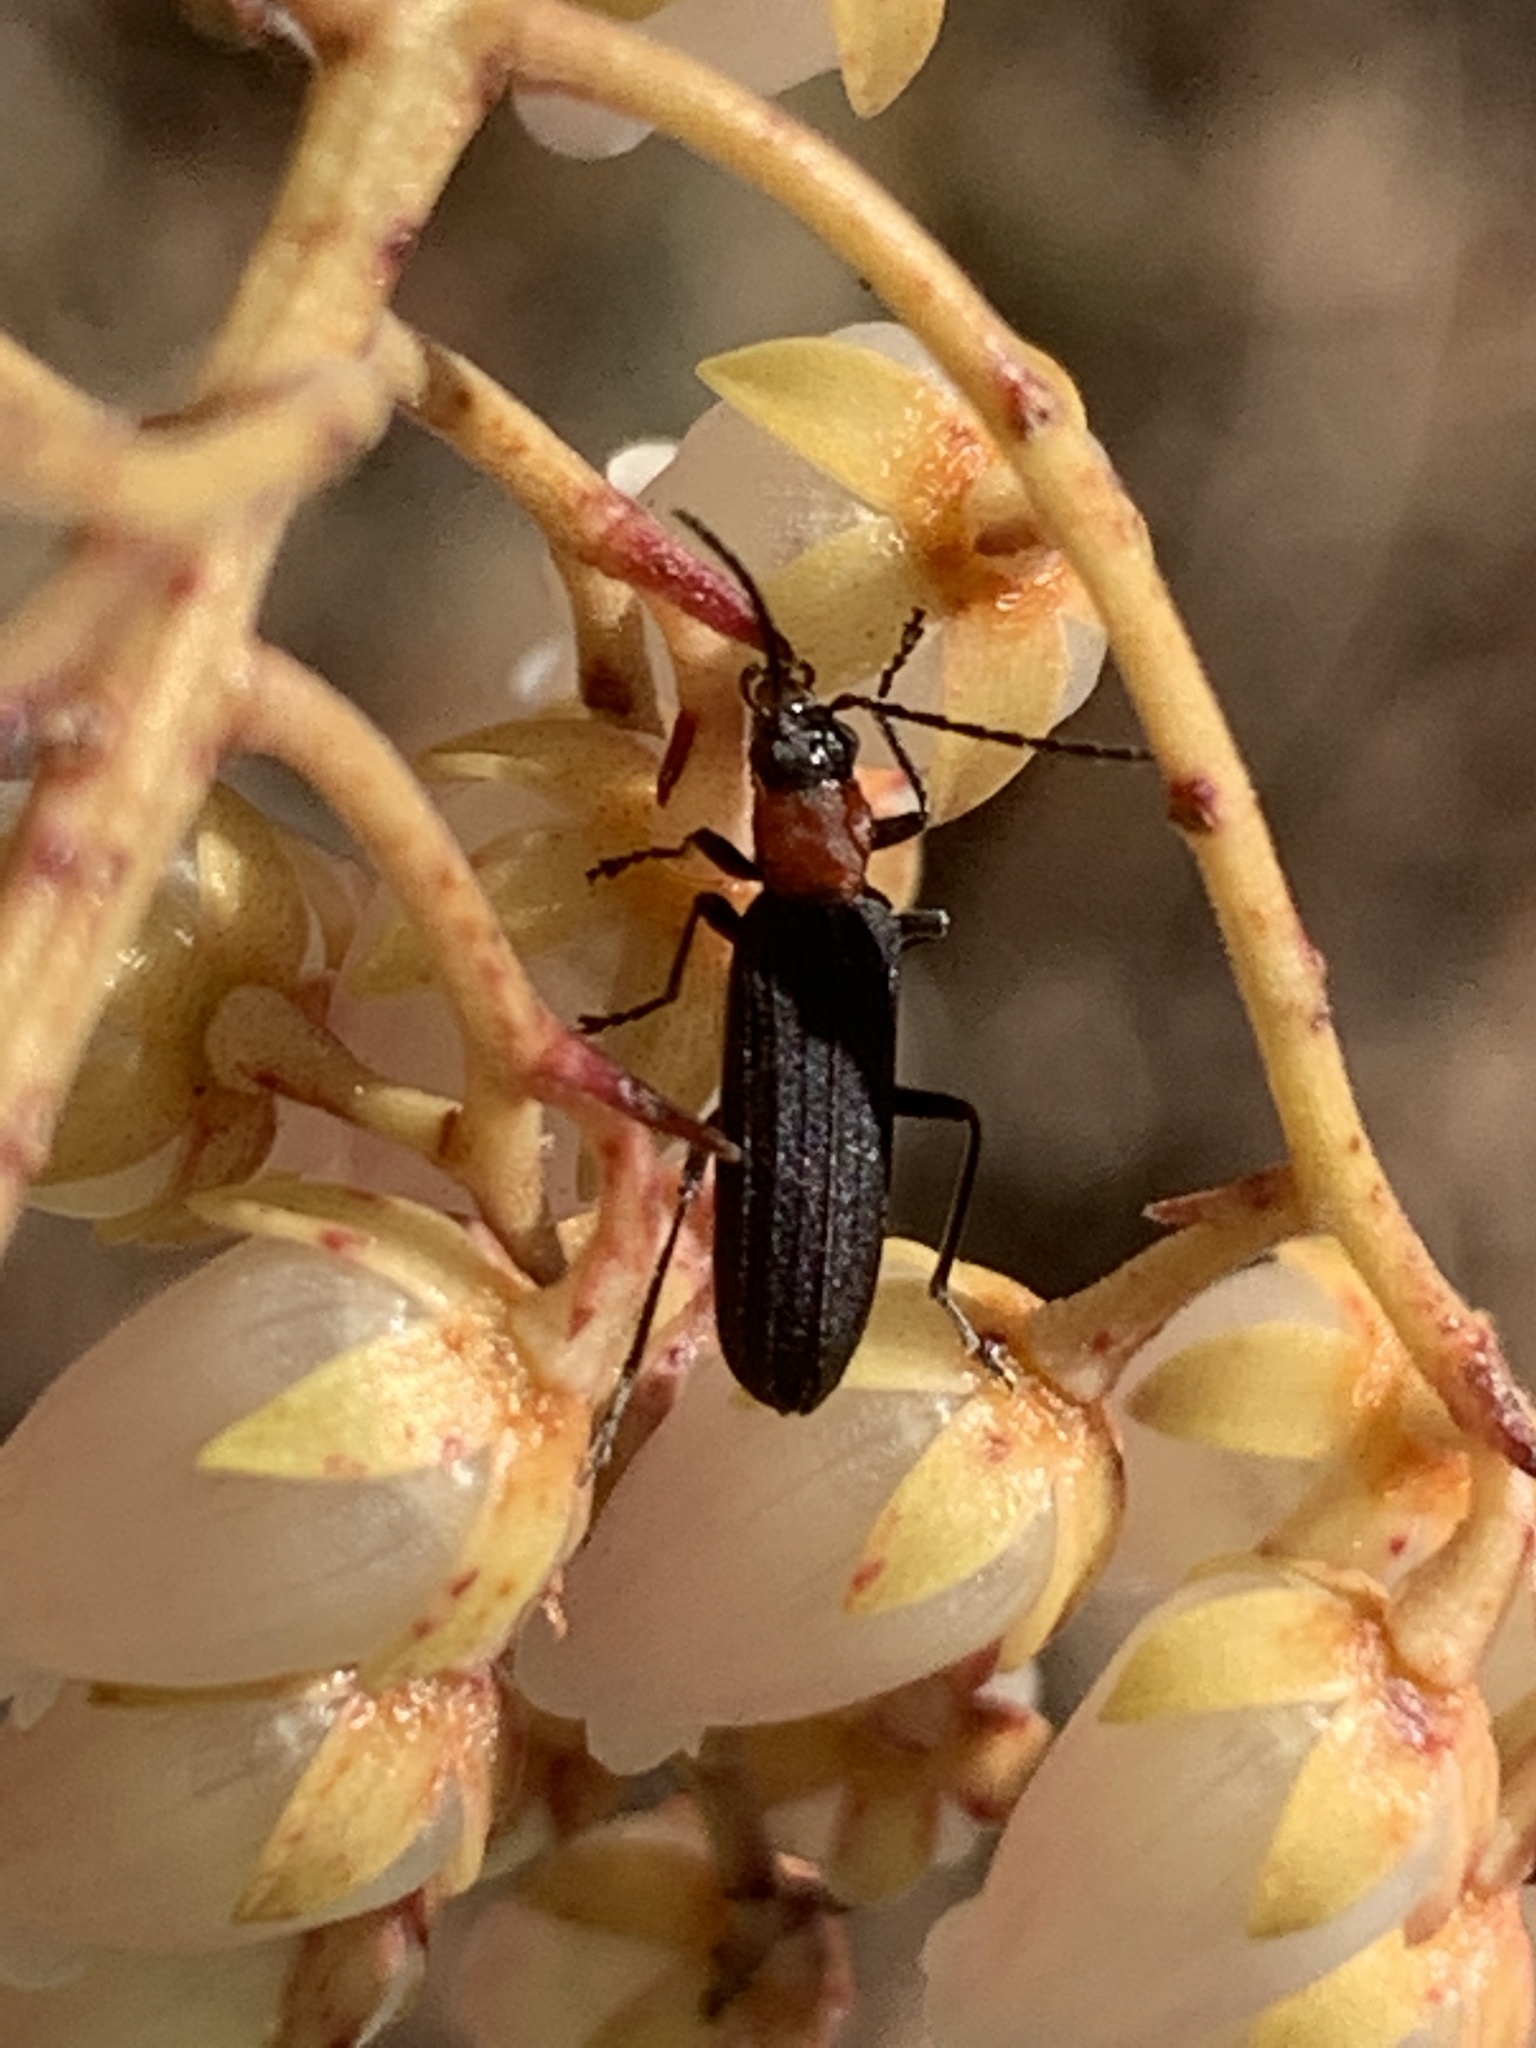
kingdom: Animalia
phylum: Arthropoda
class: Insecta
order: Coleoptera
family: Oedemeridae
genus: Ischnomera
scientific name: Ischnomera
